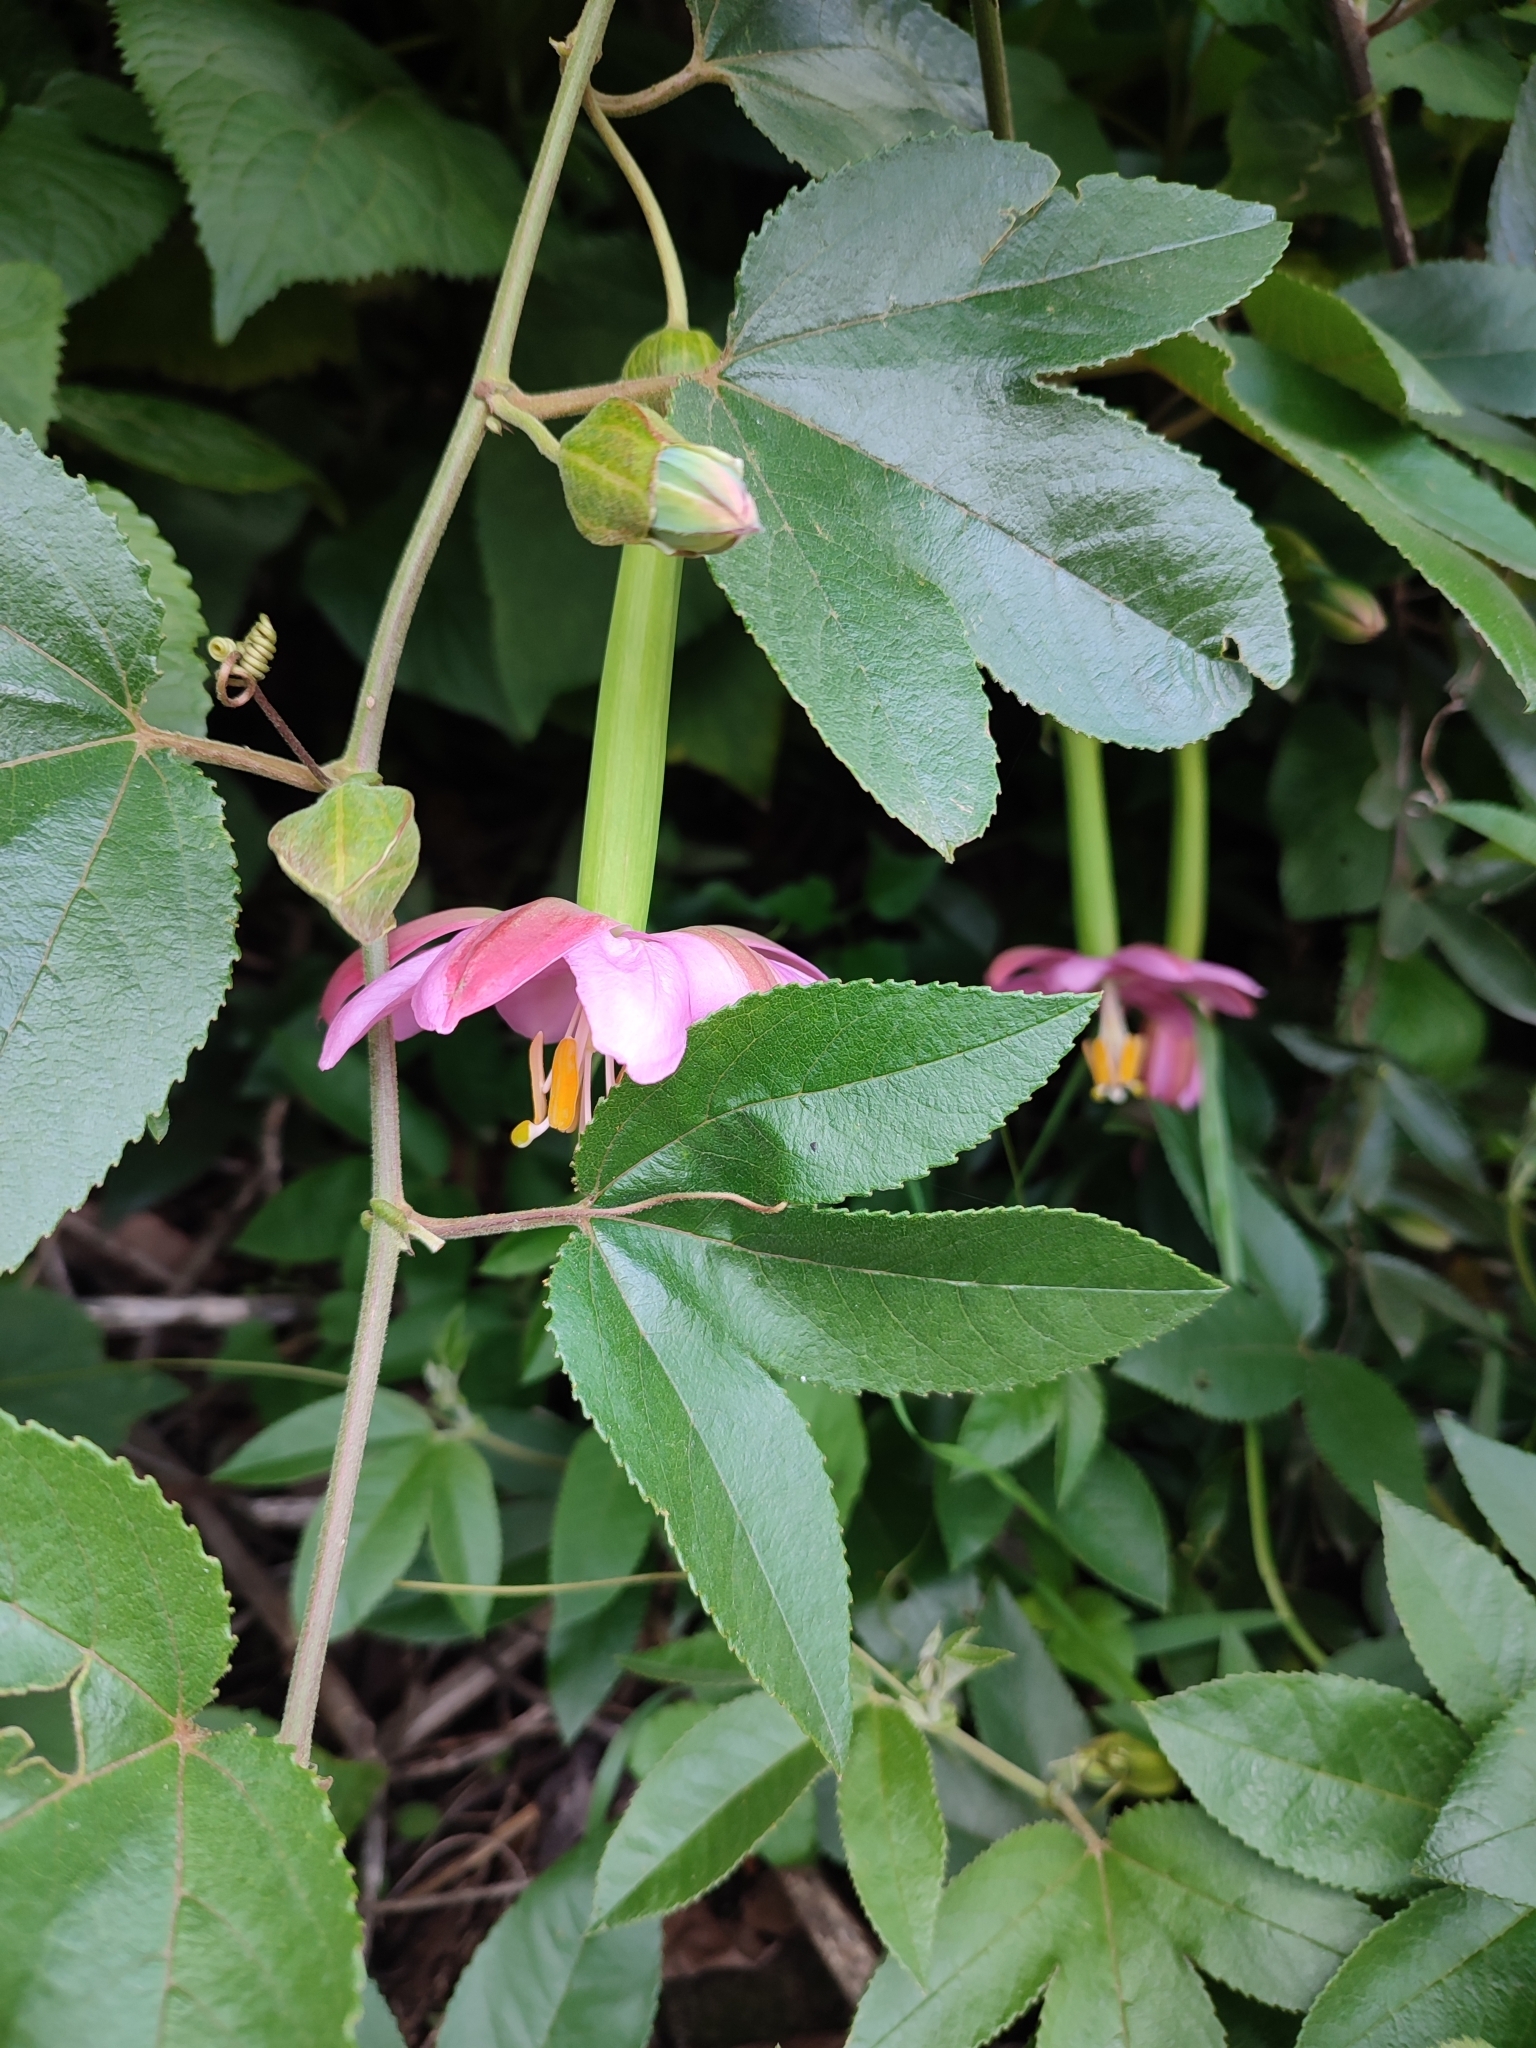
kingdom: Plantae
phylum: Tracheophyta
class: Magnoliopsida
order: Malpighiales
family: Passifloraceae
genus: Passiflora
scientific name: Passiflora tarminiana
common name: Banana poka
